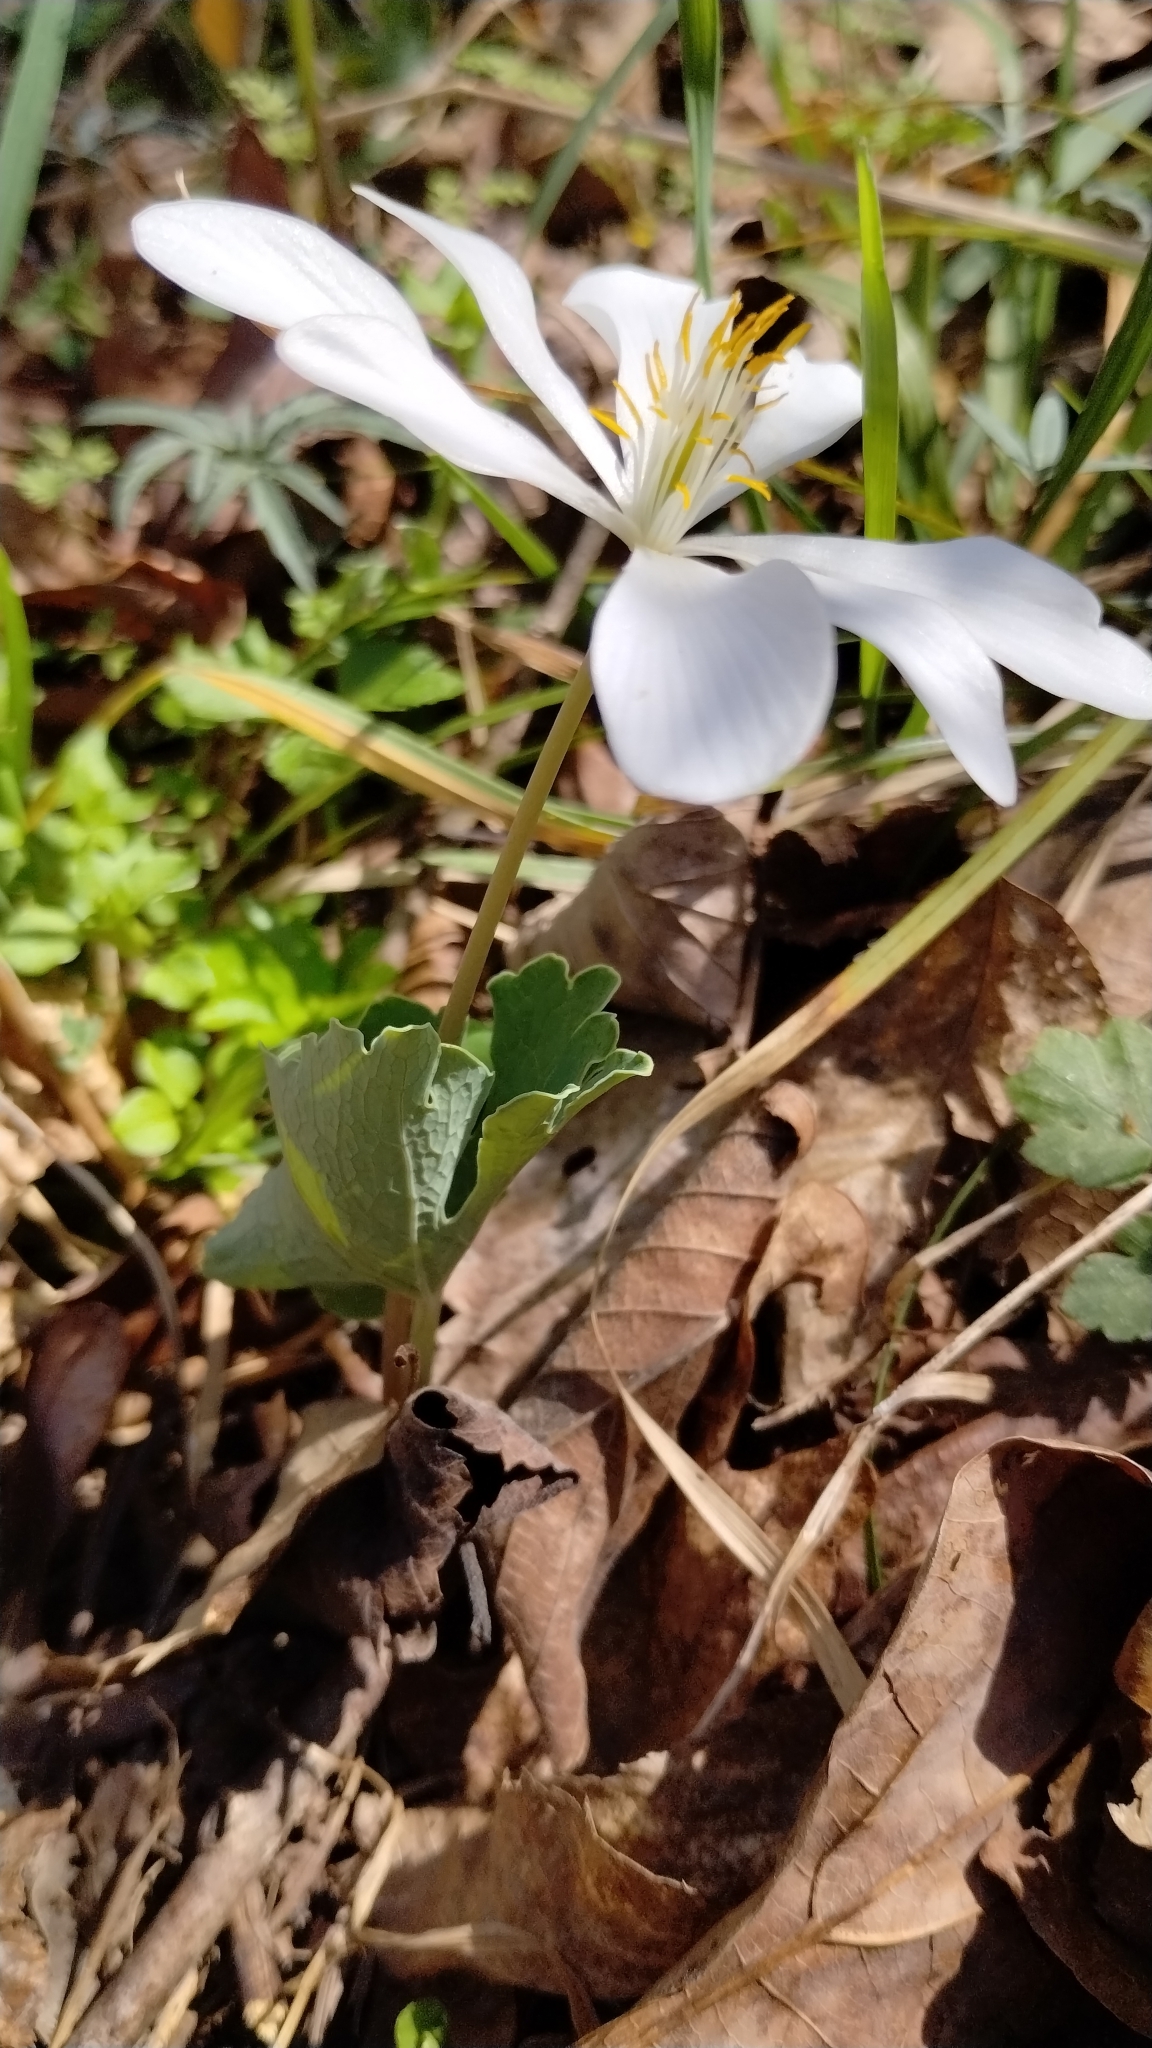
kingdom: Plantae
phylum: Tracheophyta
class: Magnoliopsida
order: Ranunculales
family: Papaveraceae
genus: Sanguinaria
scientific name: Sanguinaria canadensis
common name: Bloodroot
